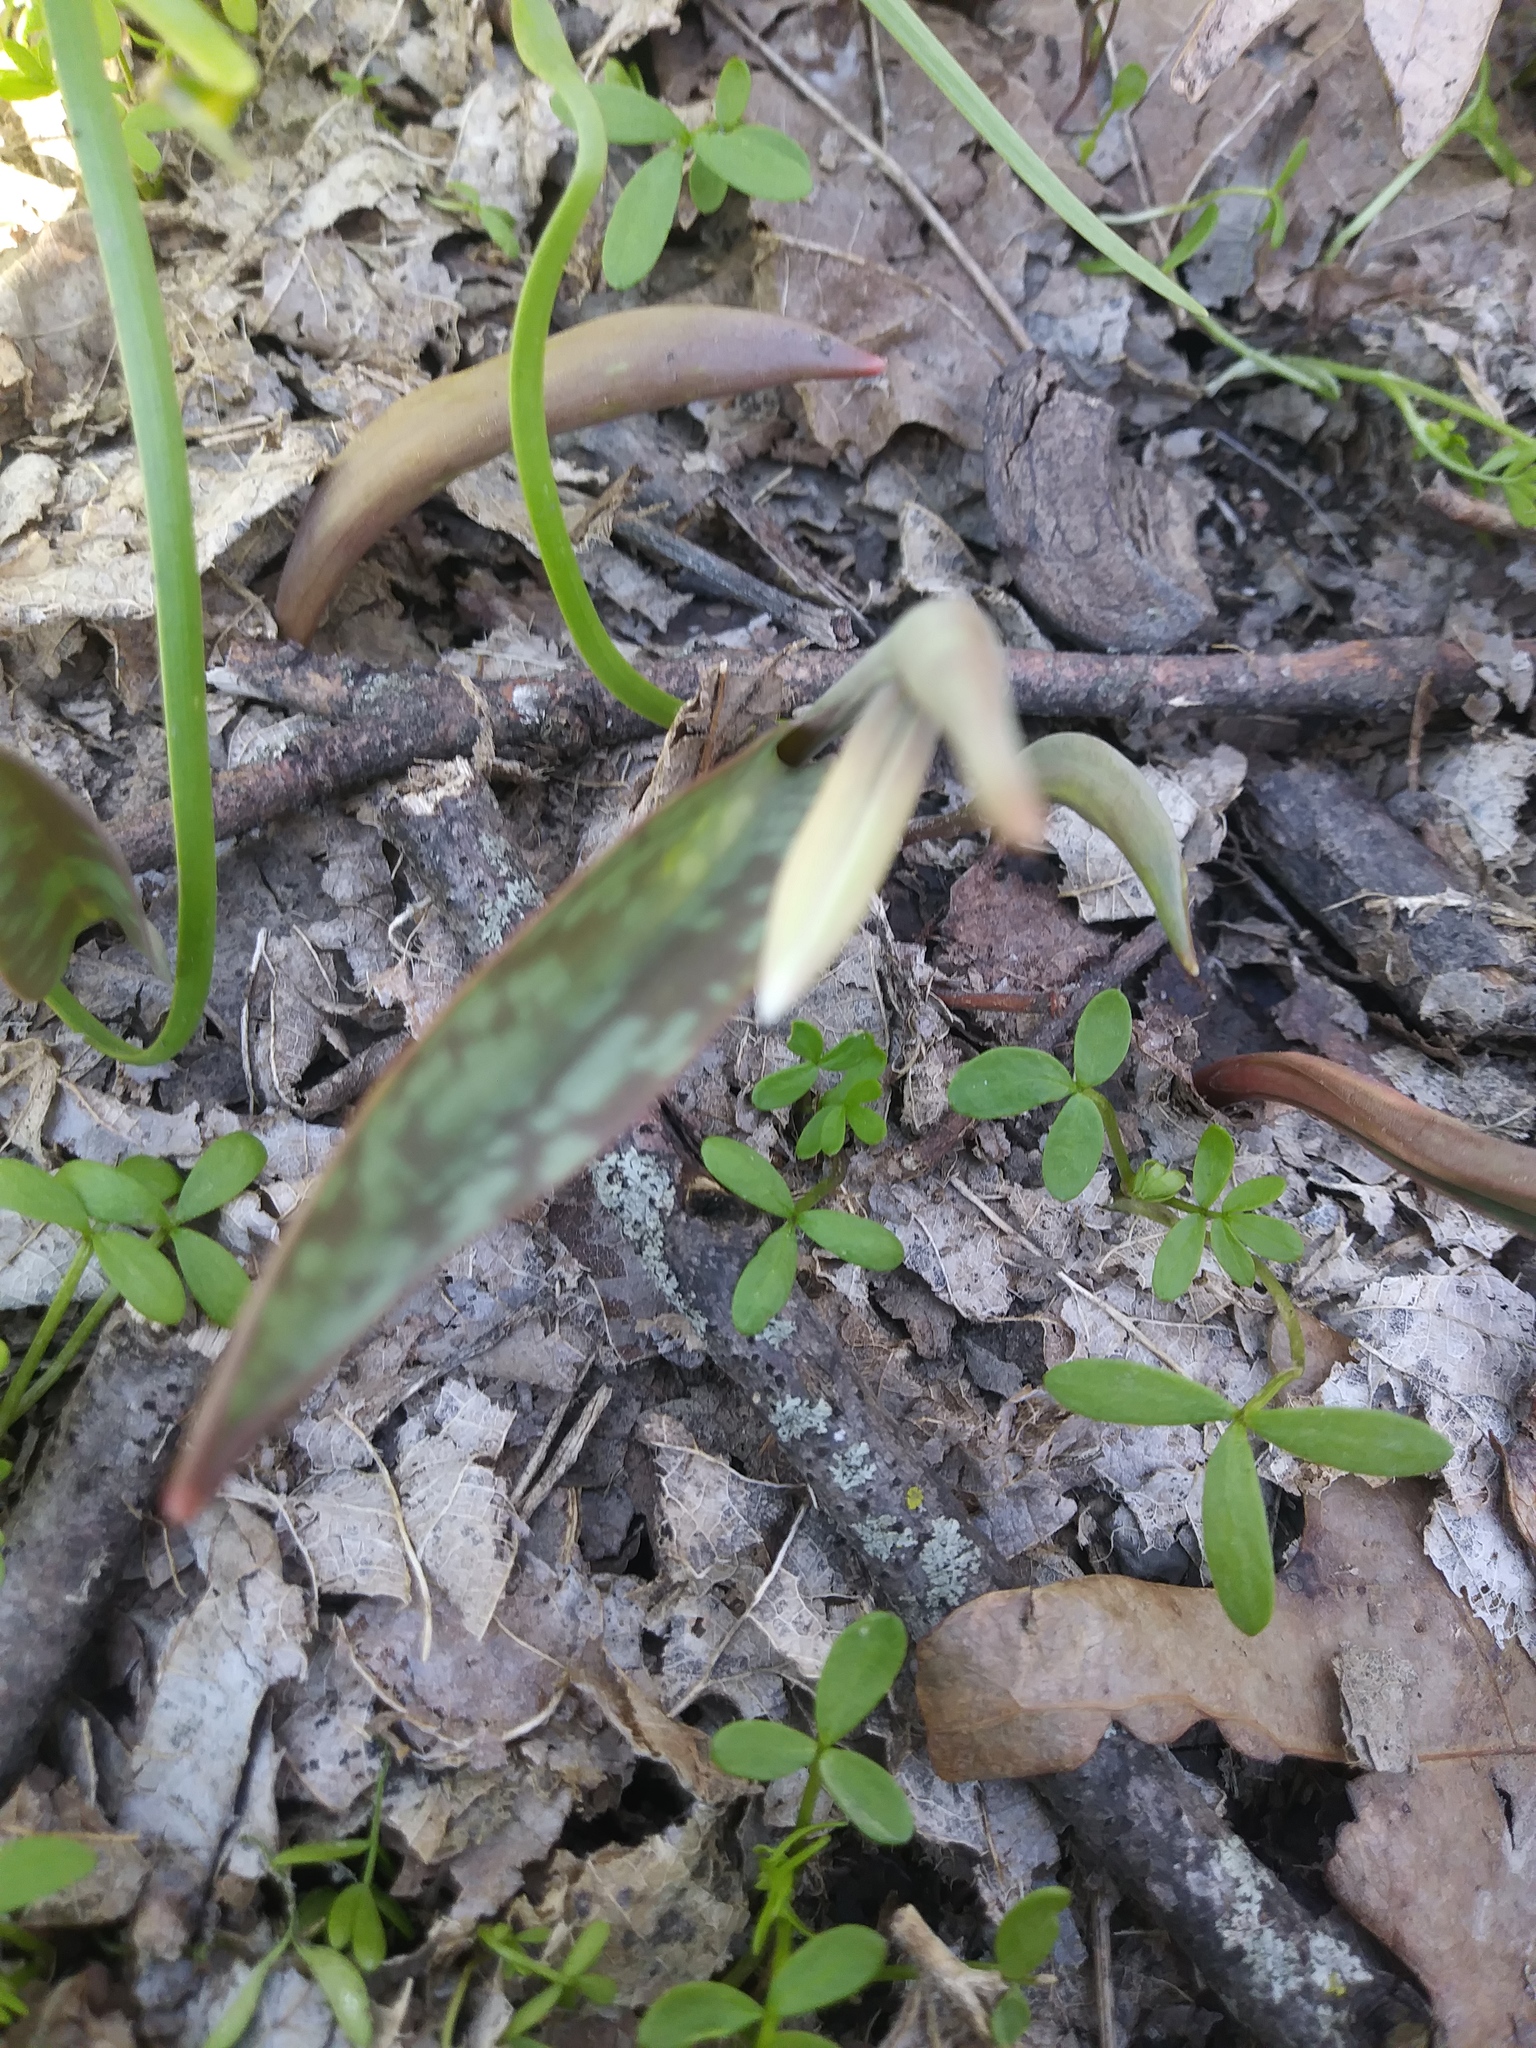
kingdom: Plantae
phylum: Tracheophyta
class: Liliopsida
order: Liliales
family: Liliaceae
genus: Erythronium
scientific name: Erythronium albidum
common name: White trout-lily
